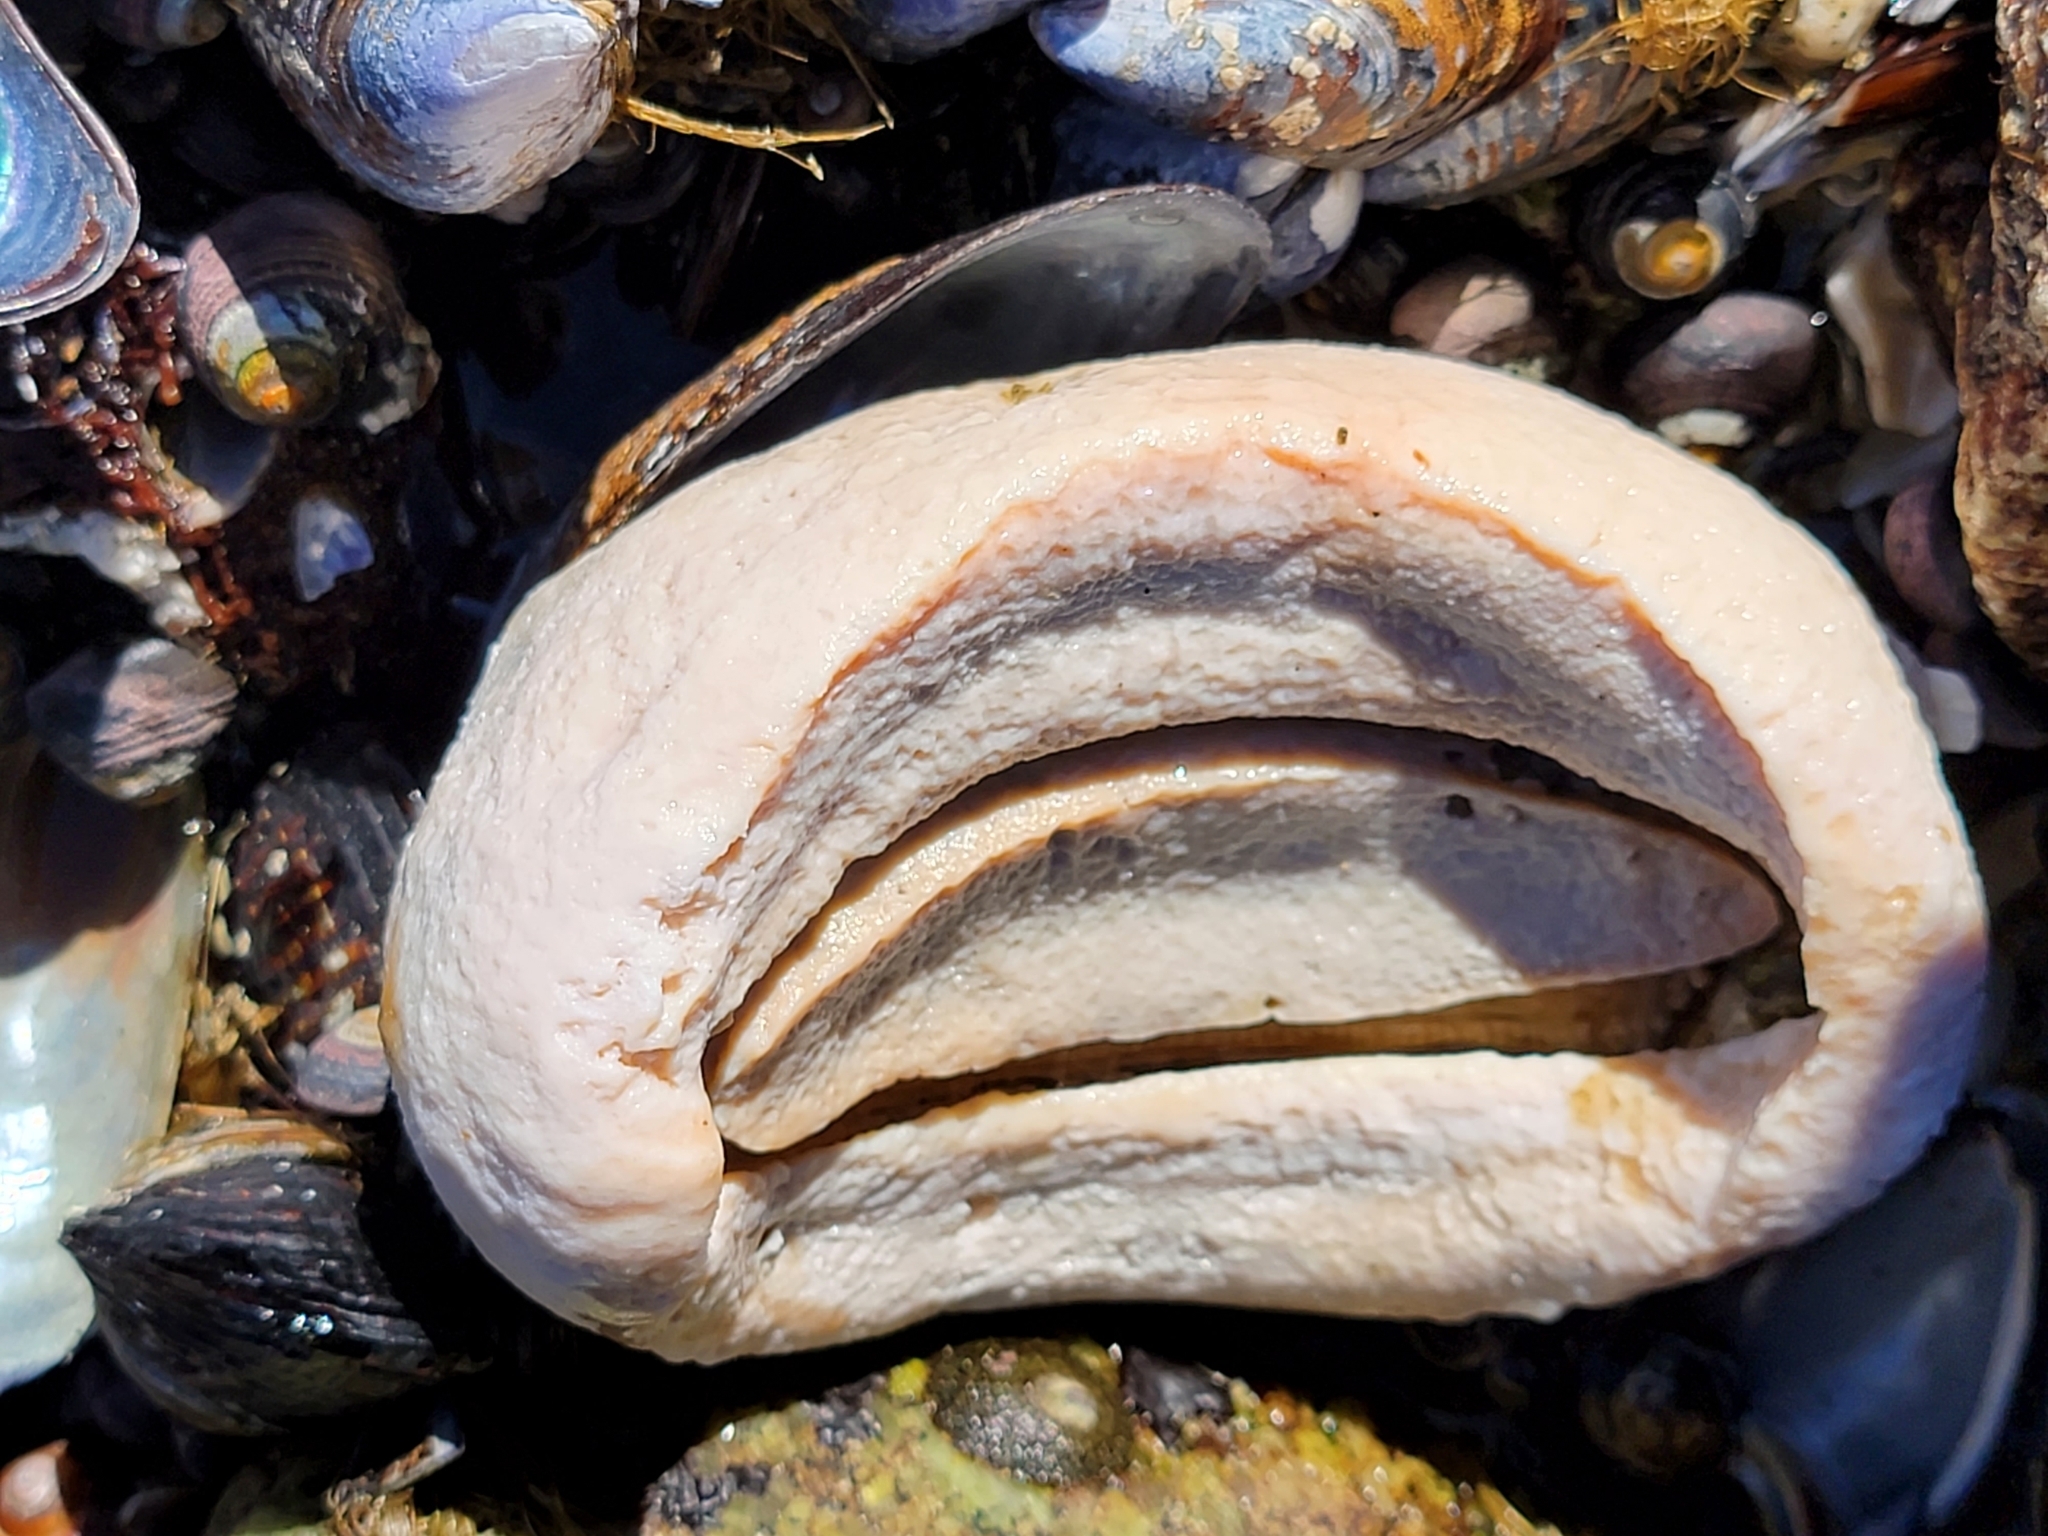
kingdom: Animalia
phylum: Mollusca
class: Polyplacophora
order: Chitonida
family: Acanthochitonidae
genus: Cryptochiton
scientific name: Cryptochiton stelleri
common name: Giant pacific chiton
